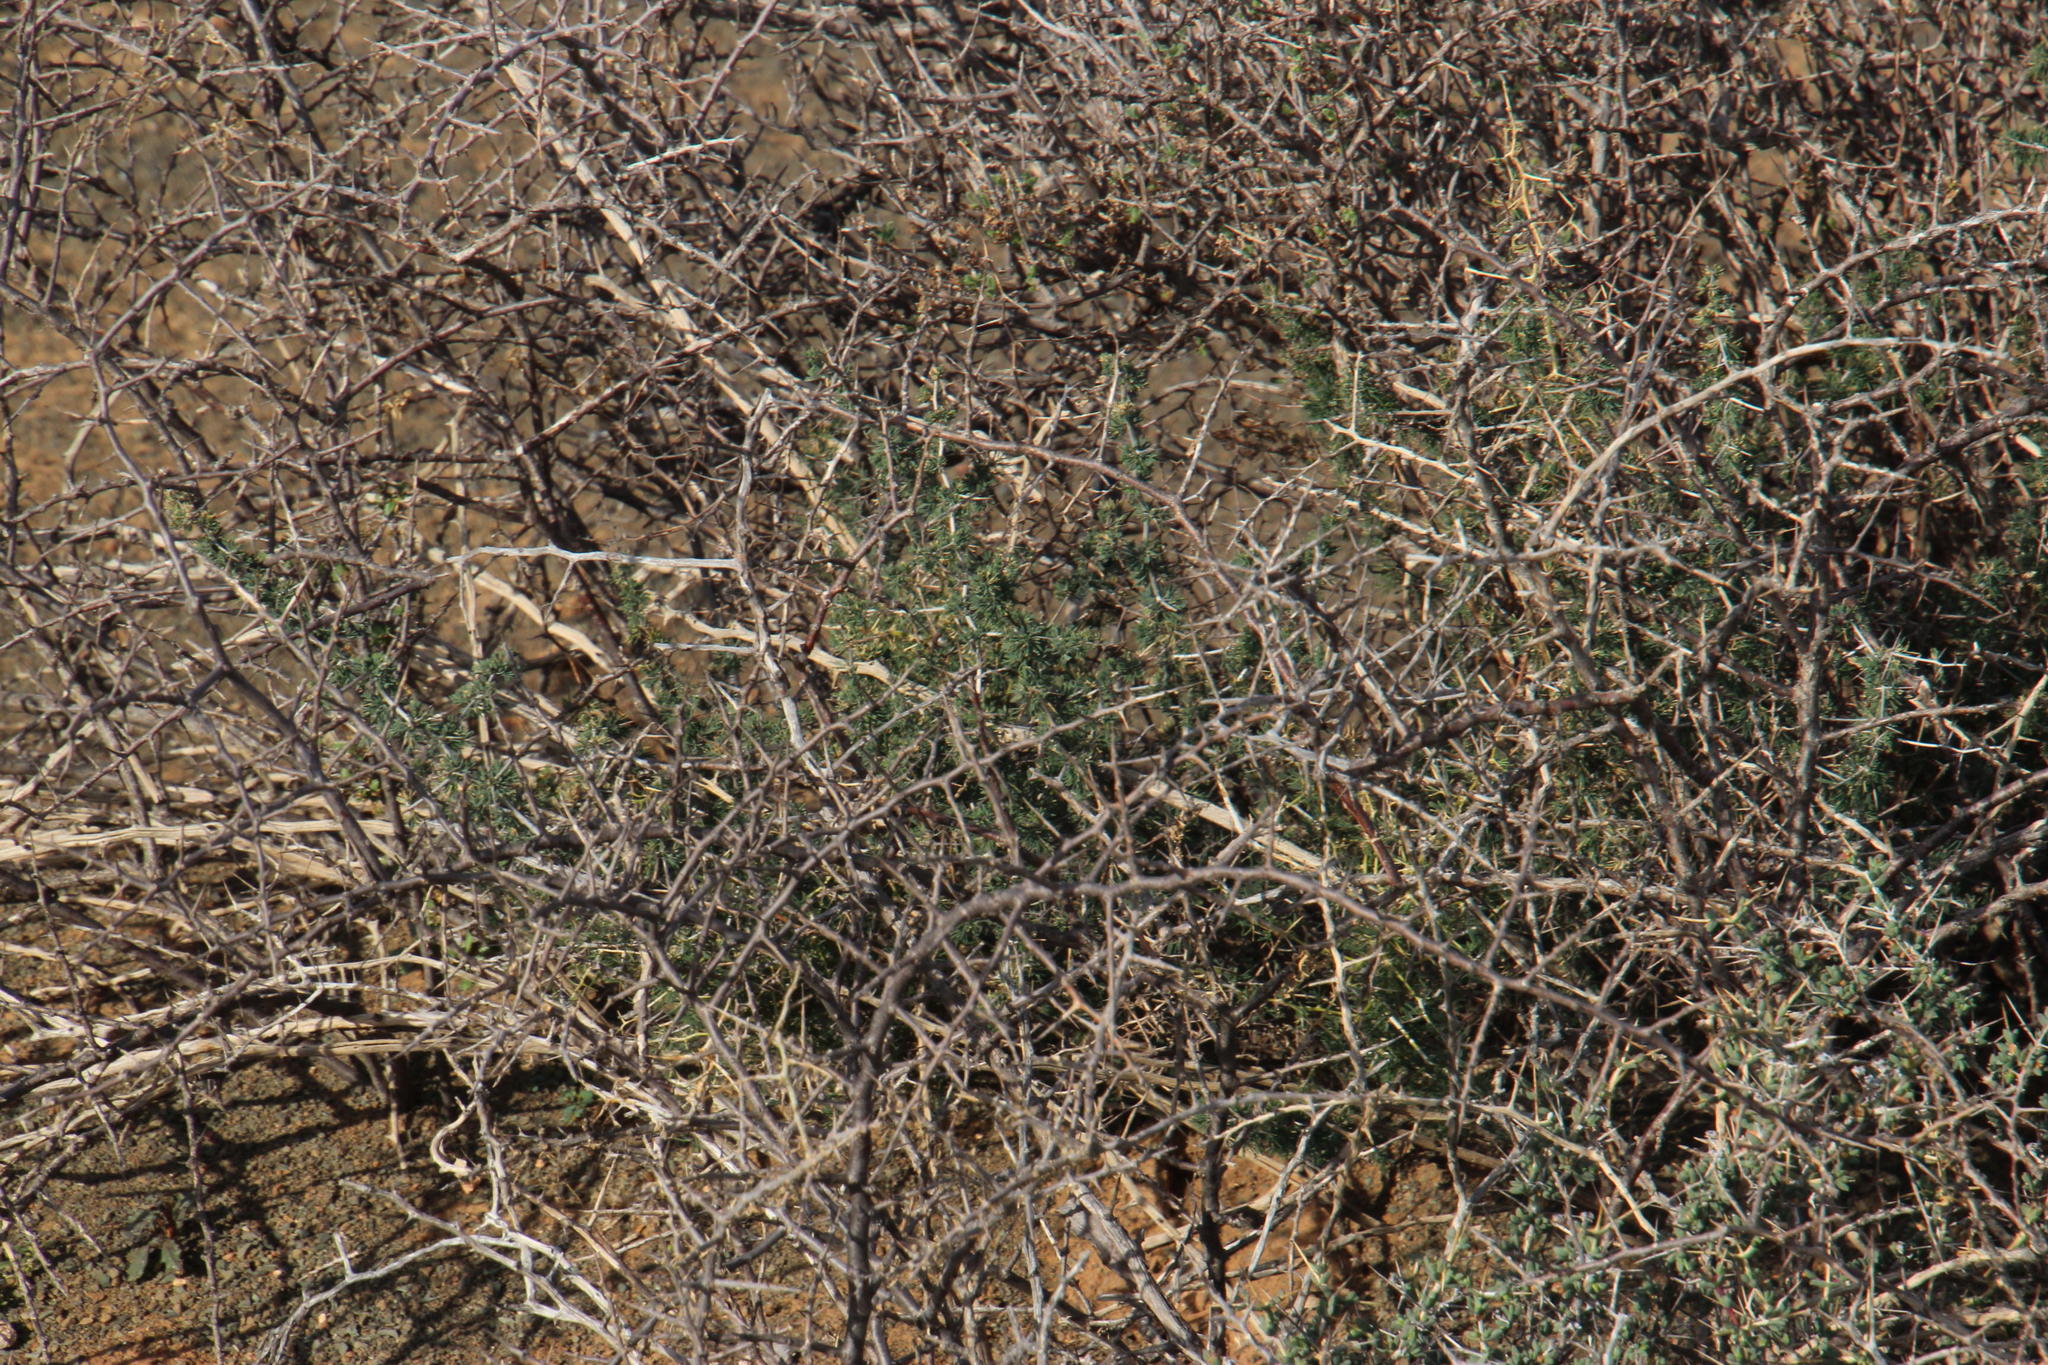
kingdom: Plantae
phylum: Tracheophyta
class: Liliopsida
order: Asparagales
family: Asparagaceae
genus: Asparagus
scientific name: Asparagus suaveolens
